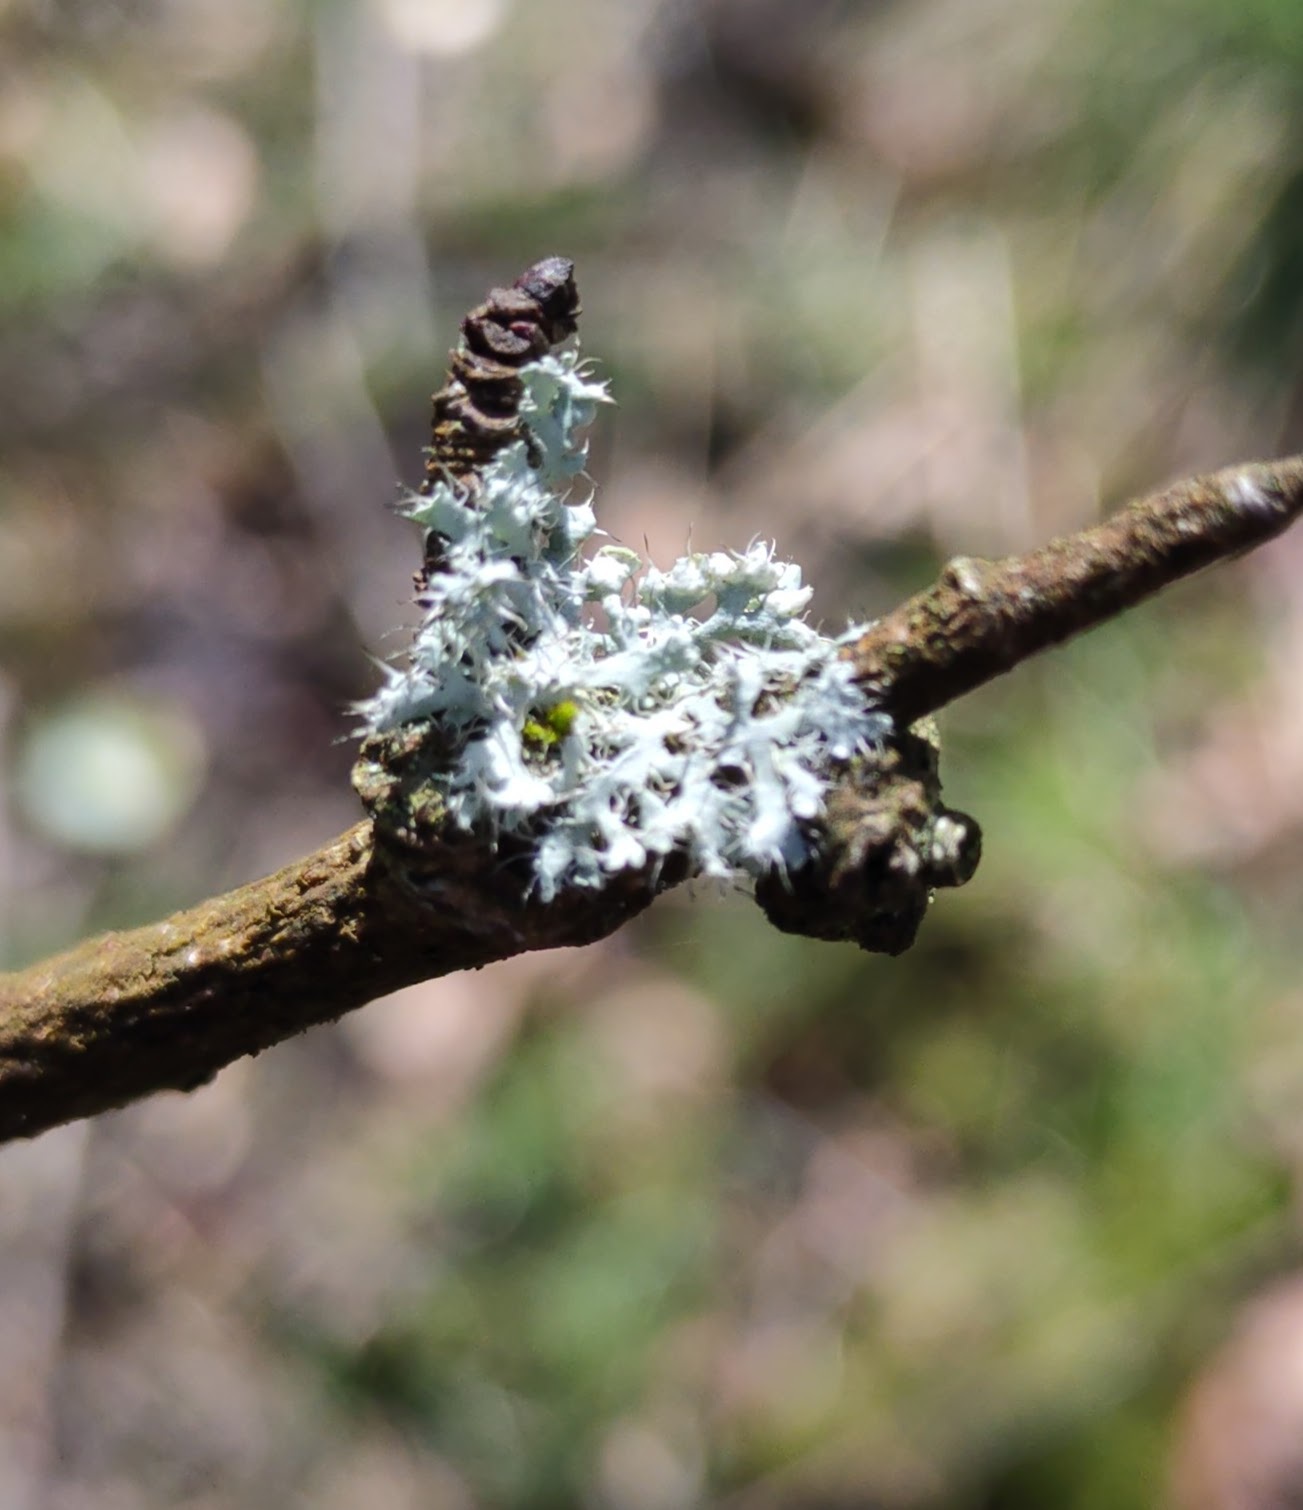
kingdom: Fungi
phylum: Ascomycota
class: Lecanoromycetes
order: Caliciales
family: Physciaceae
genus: Physcia
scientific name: Physcia adscendens
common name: Hooded rosette lichen
